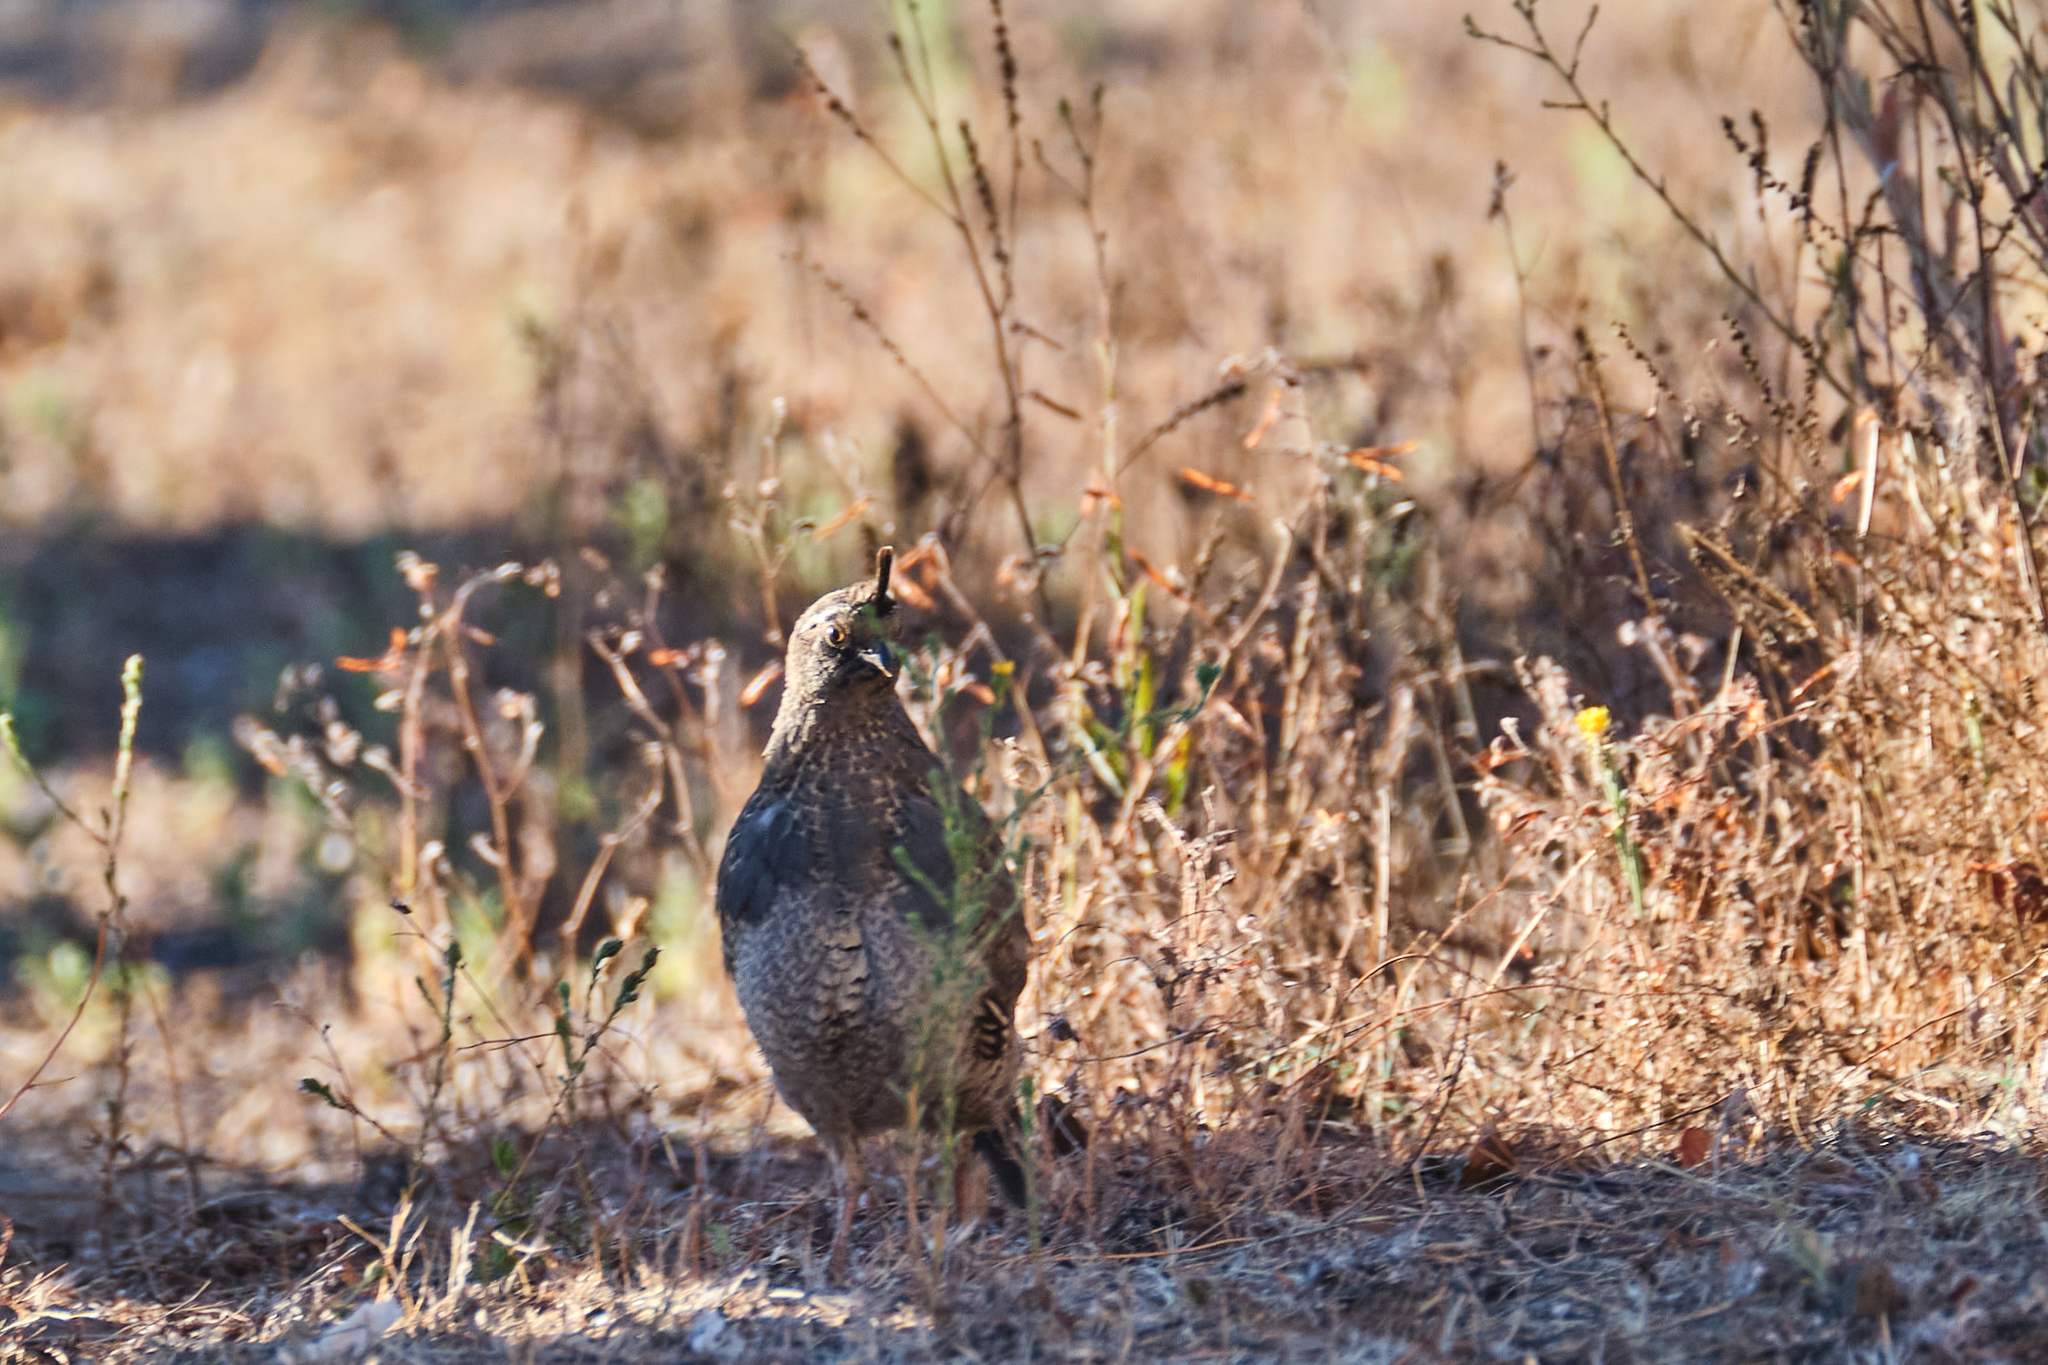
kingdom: Animalia
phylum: Chordata
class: Aves
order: Galliformes
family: Odontophoridae
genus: Callipepla
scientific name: Callipepla californica
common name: California quail
